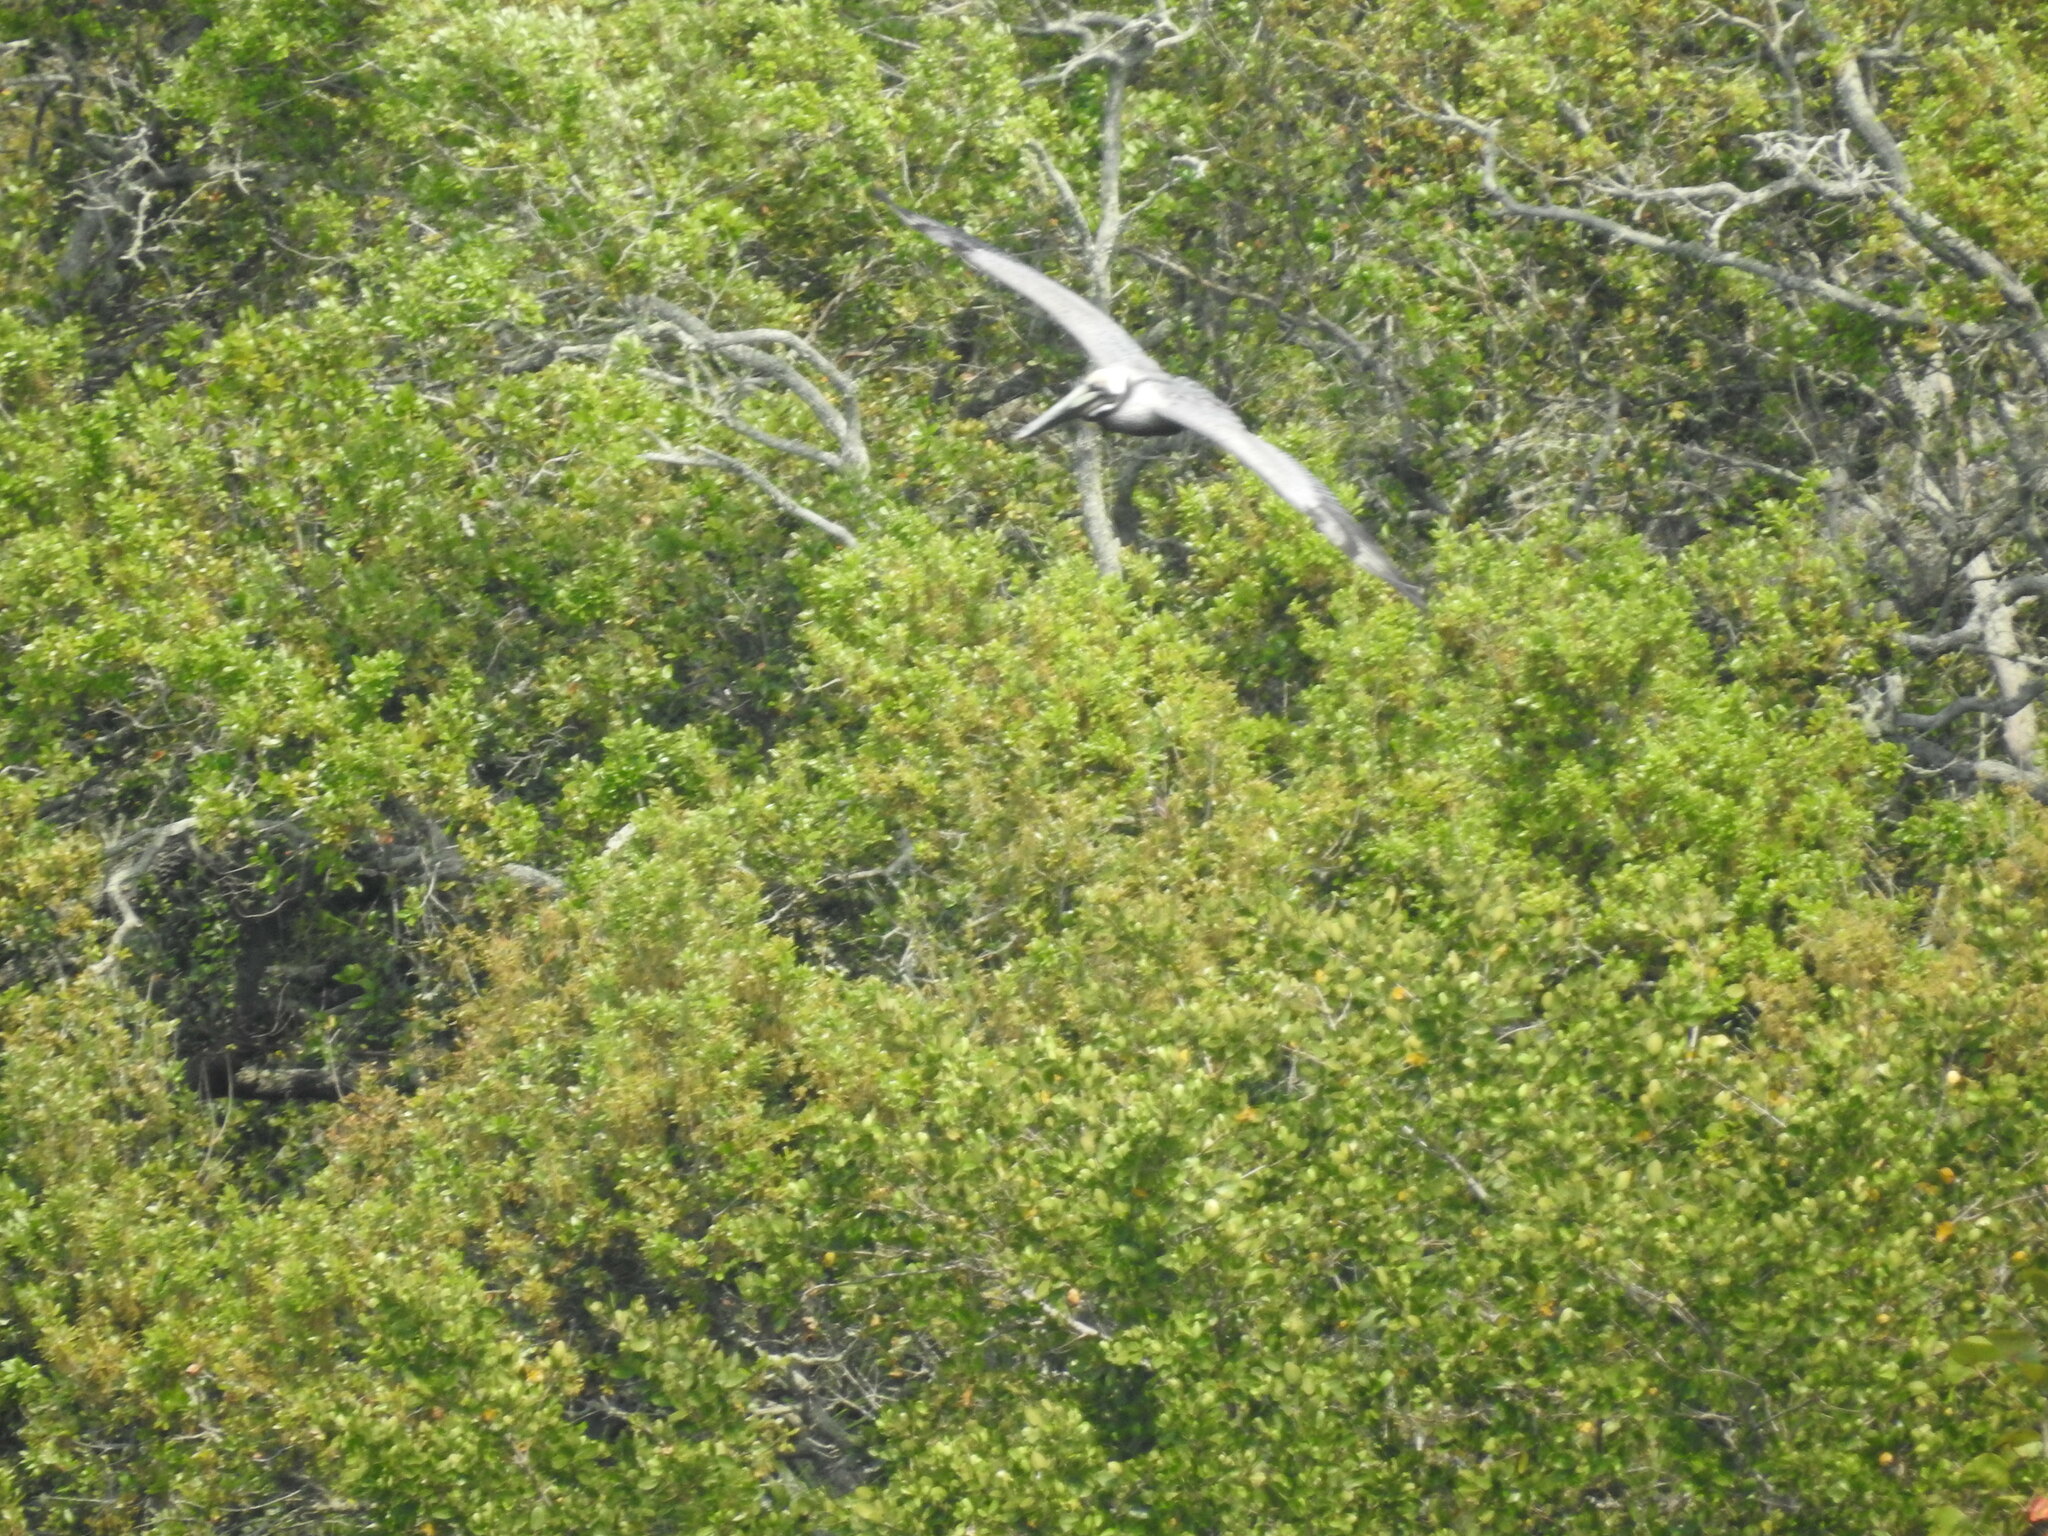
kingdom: Animalia
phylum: Chordata
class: Aves
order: Pelecaniformes
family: Pelecanidae
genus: Pelecanus
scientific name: Pelecanus occidentalis
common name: Brown pelican
